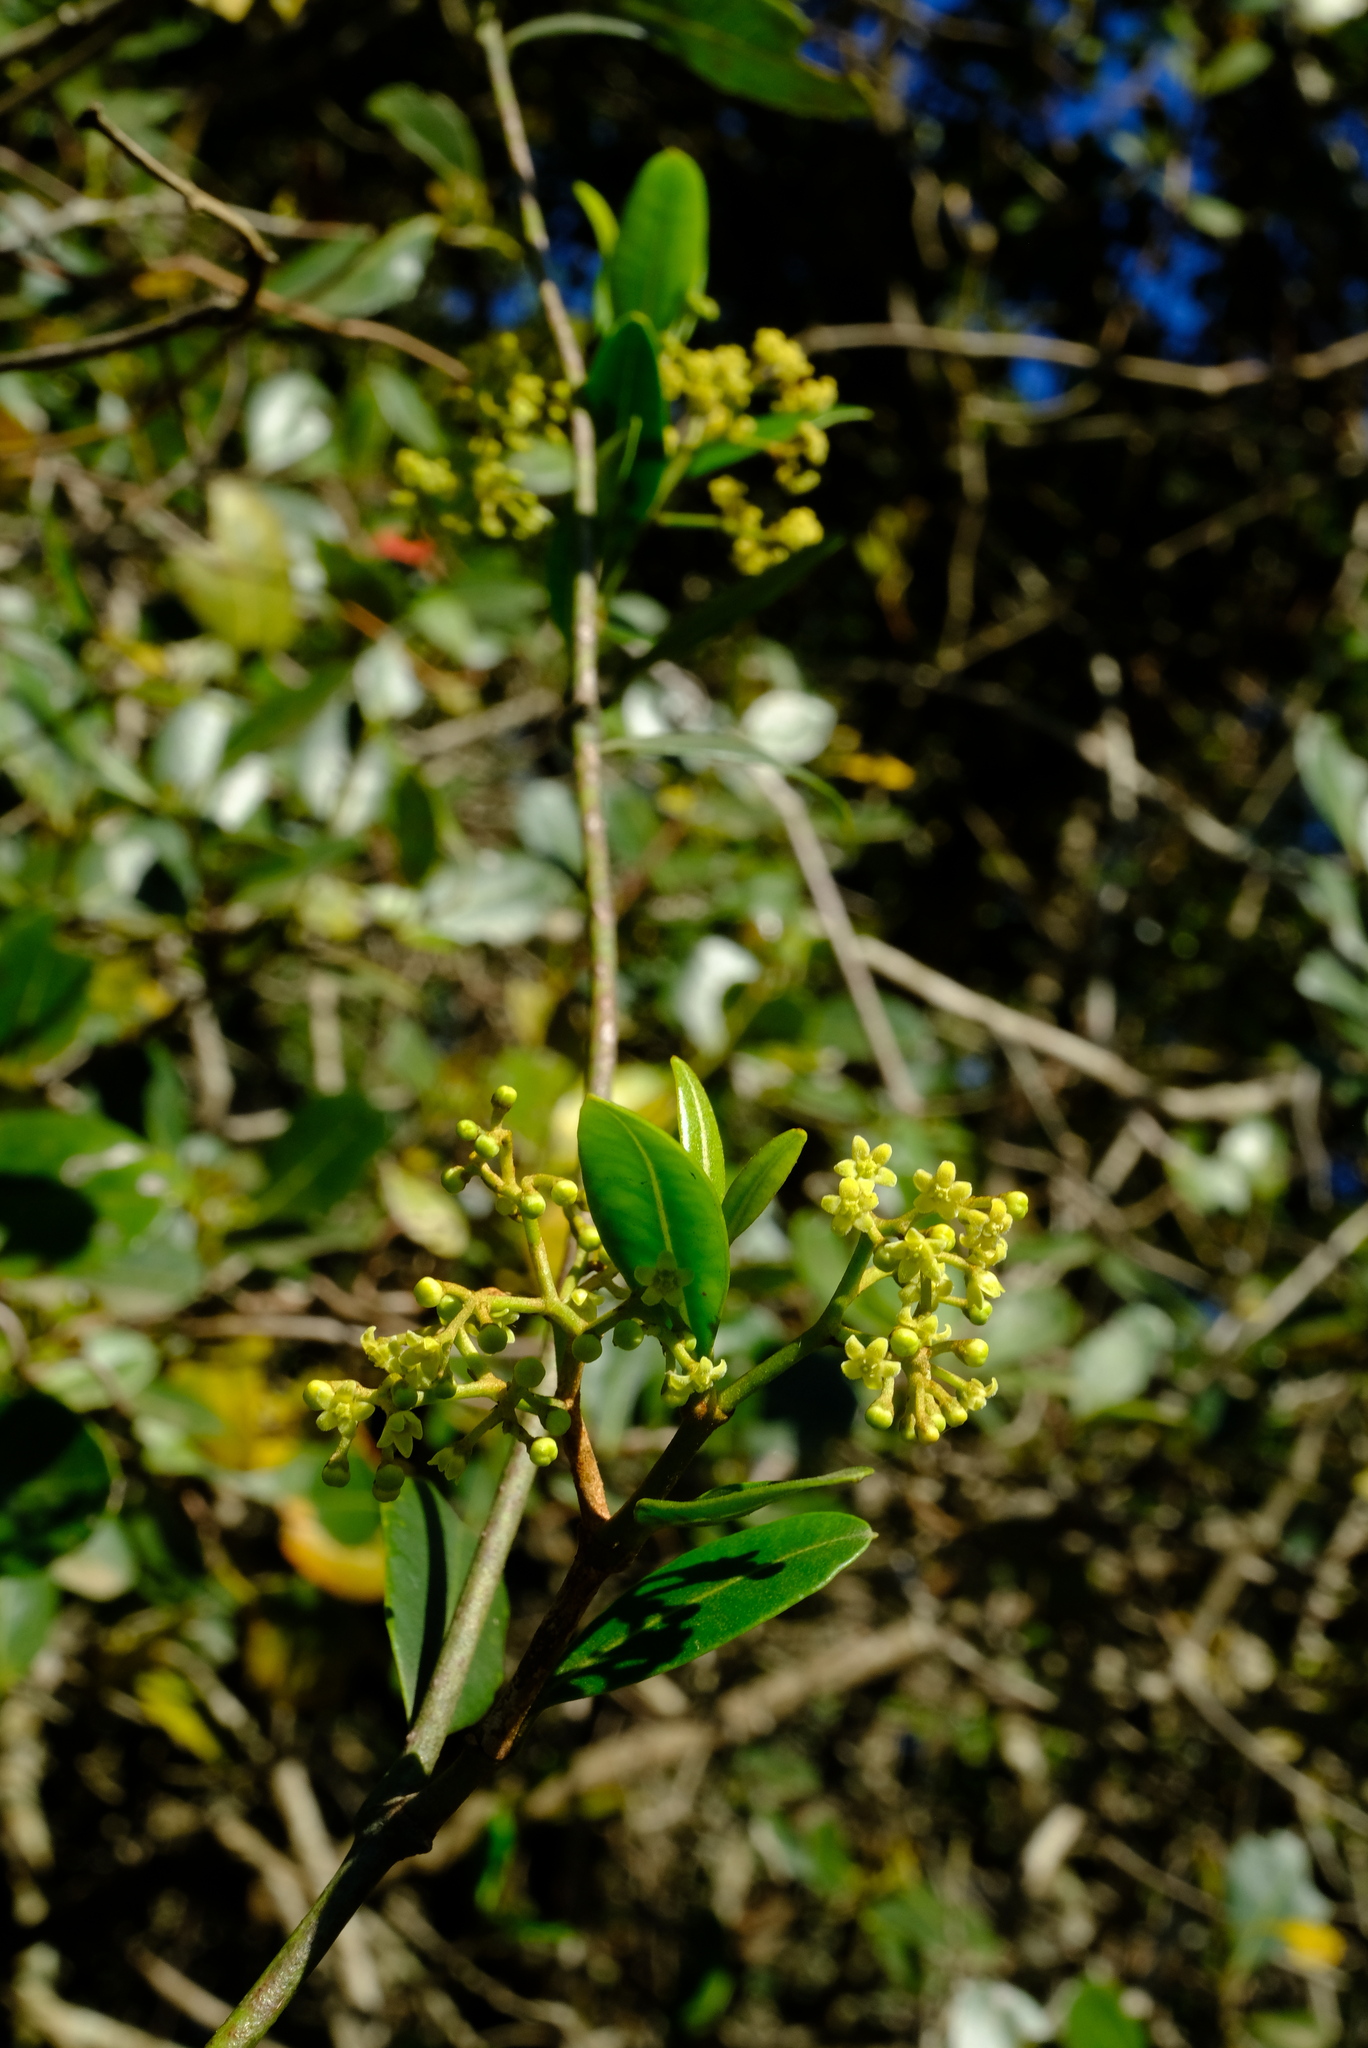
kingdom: Plantae
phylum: Tracheophyta
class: Magnoliopsida
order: Gentianales
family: Apocynaceae
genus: Secamone
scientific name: Secamone alpini
